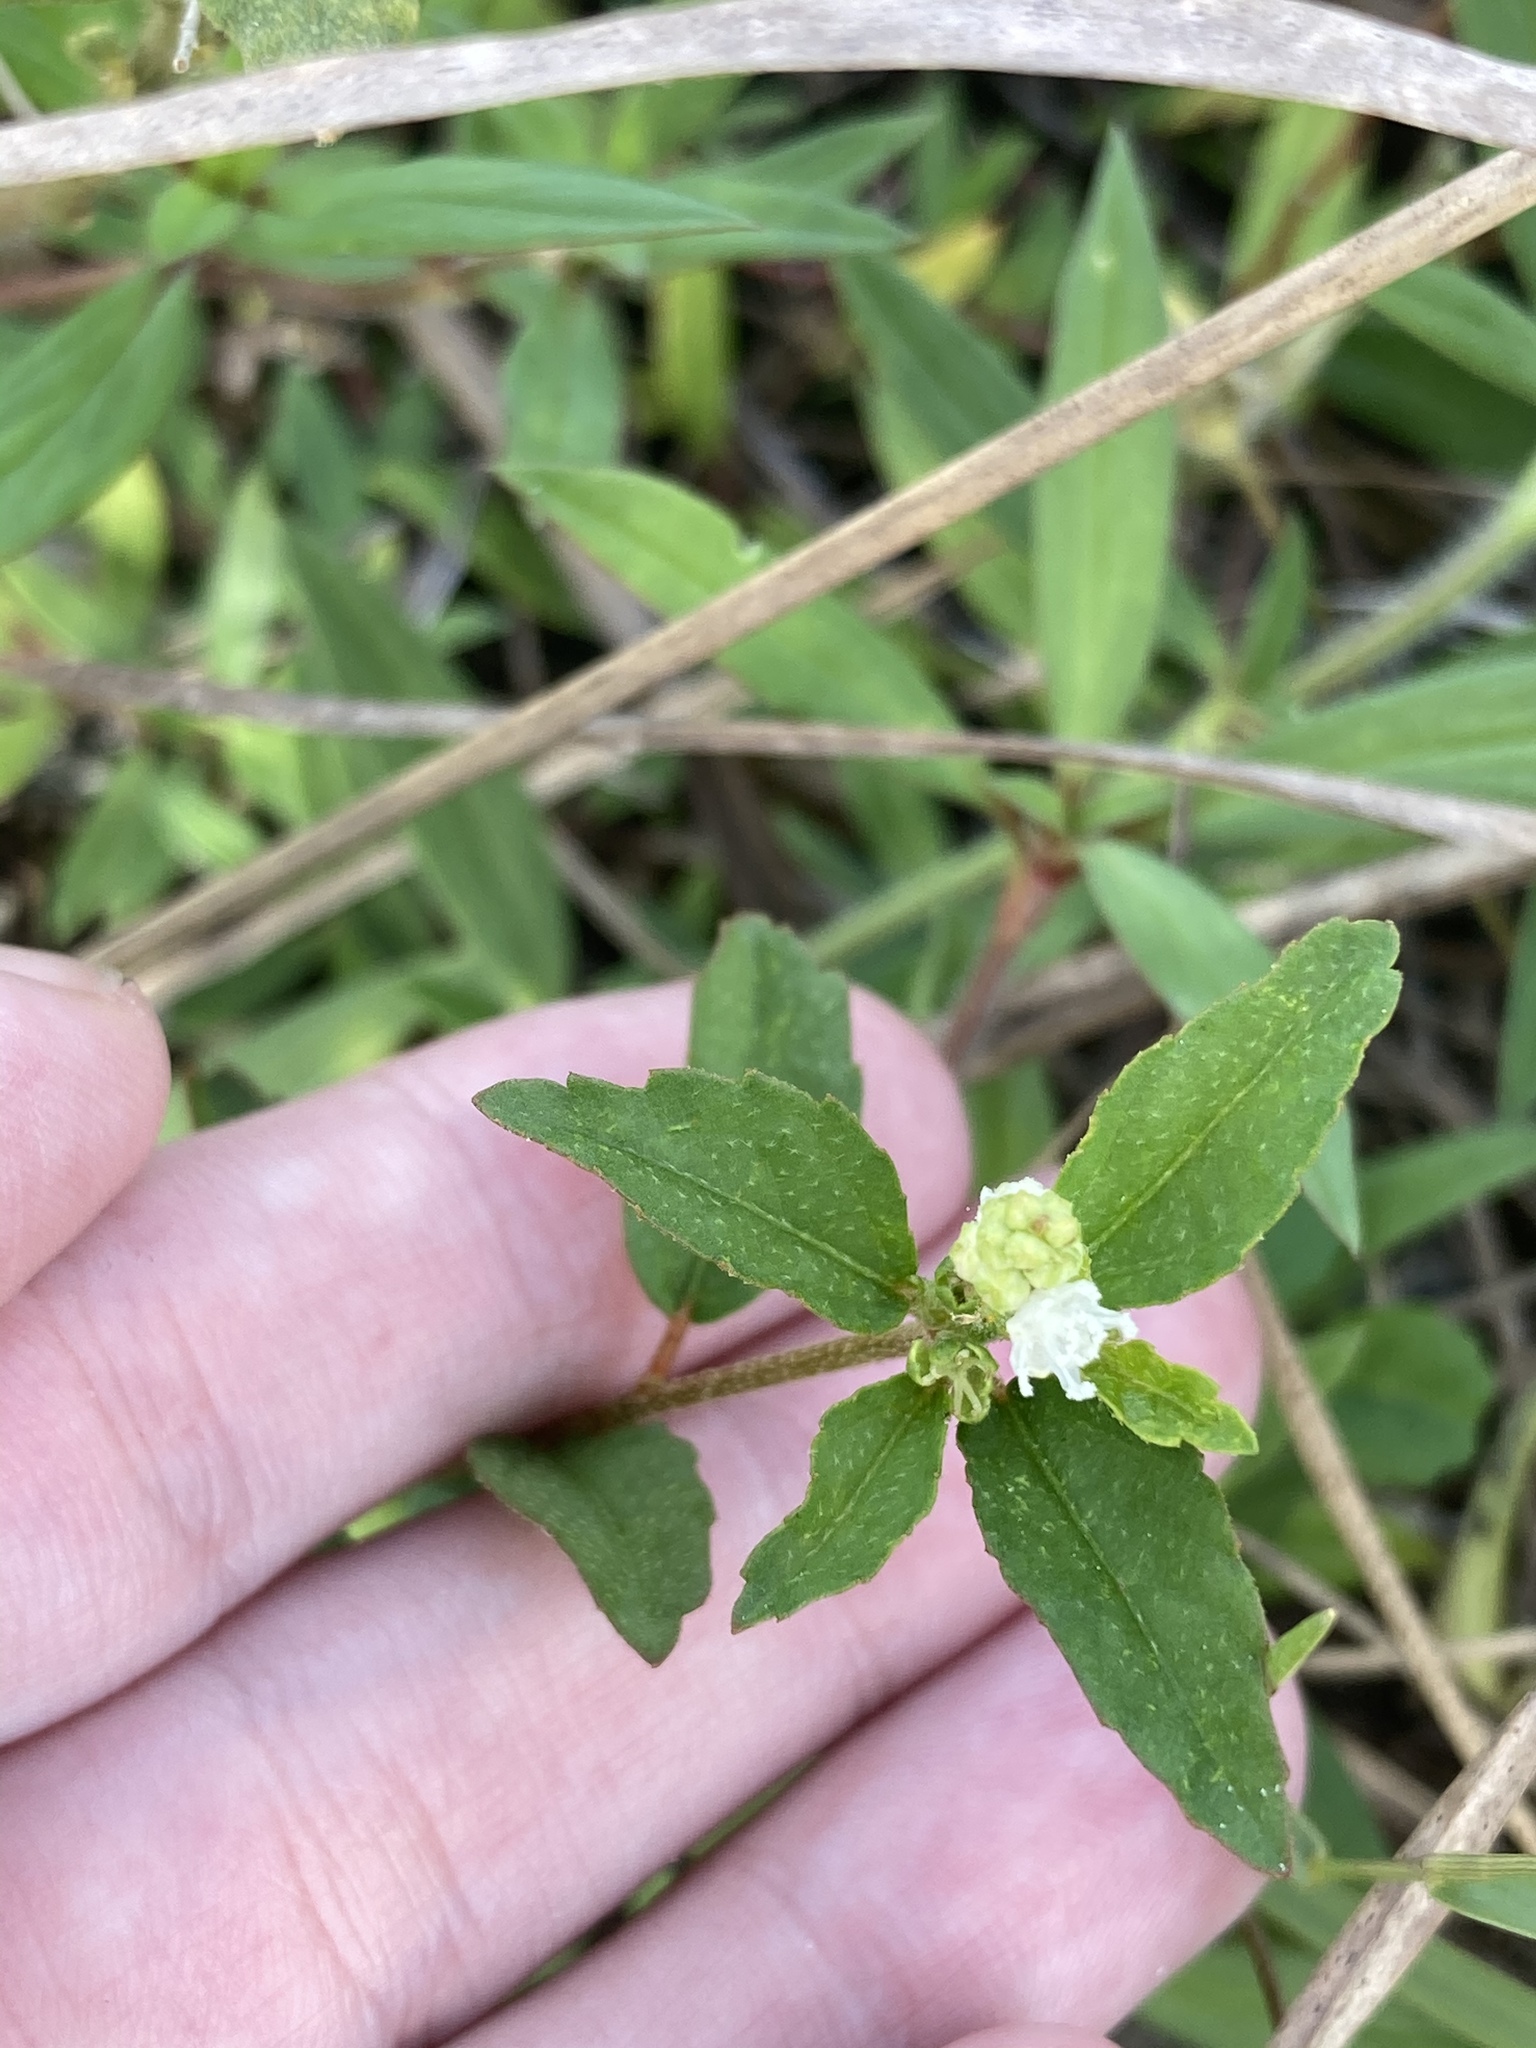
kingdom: Plantae
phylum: Tracheophyta
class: Magnoliopsida
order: Malpighiales
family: Euphorbiaceae
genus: Croton
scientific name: Croton glandulosus
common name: Tropic croton
